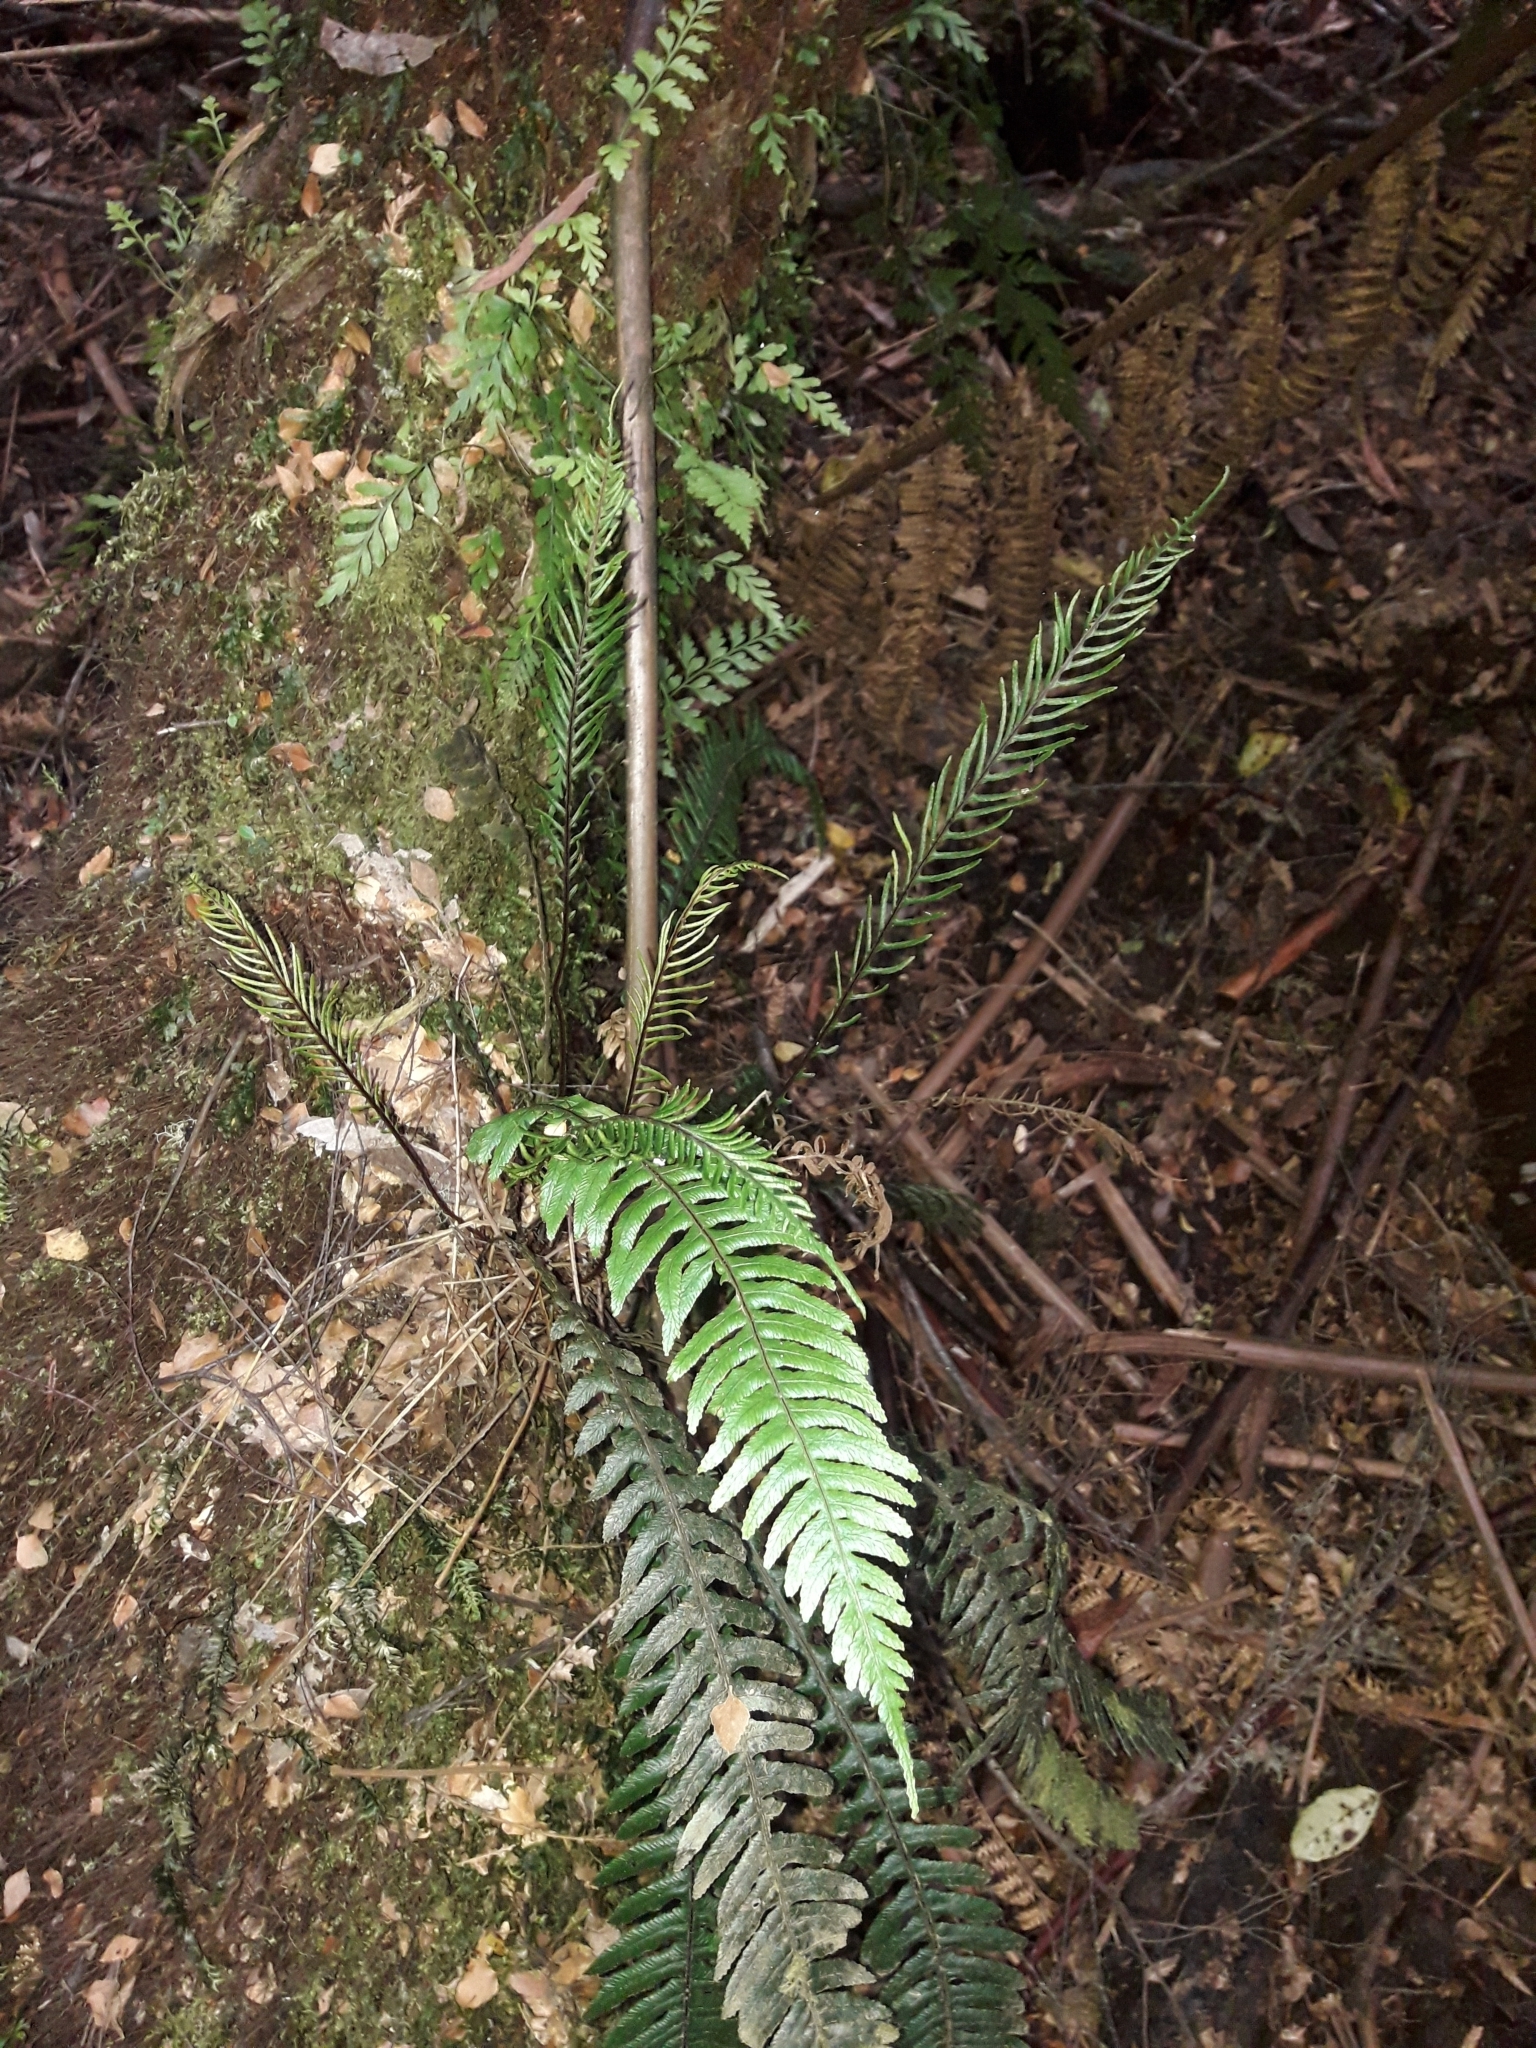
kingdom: Plantae
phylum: Tracheophyta
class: Polypodiopsida
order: Polypodiales
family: Blechnaceae
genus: Austroblechnum
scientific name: Austroblechnum lanceolatum
